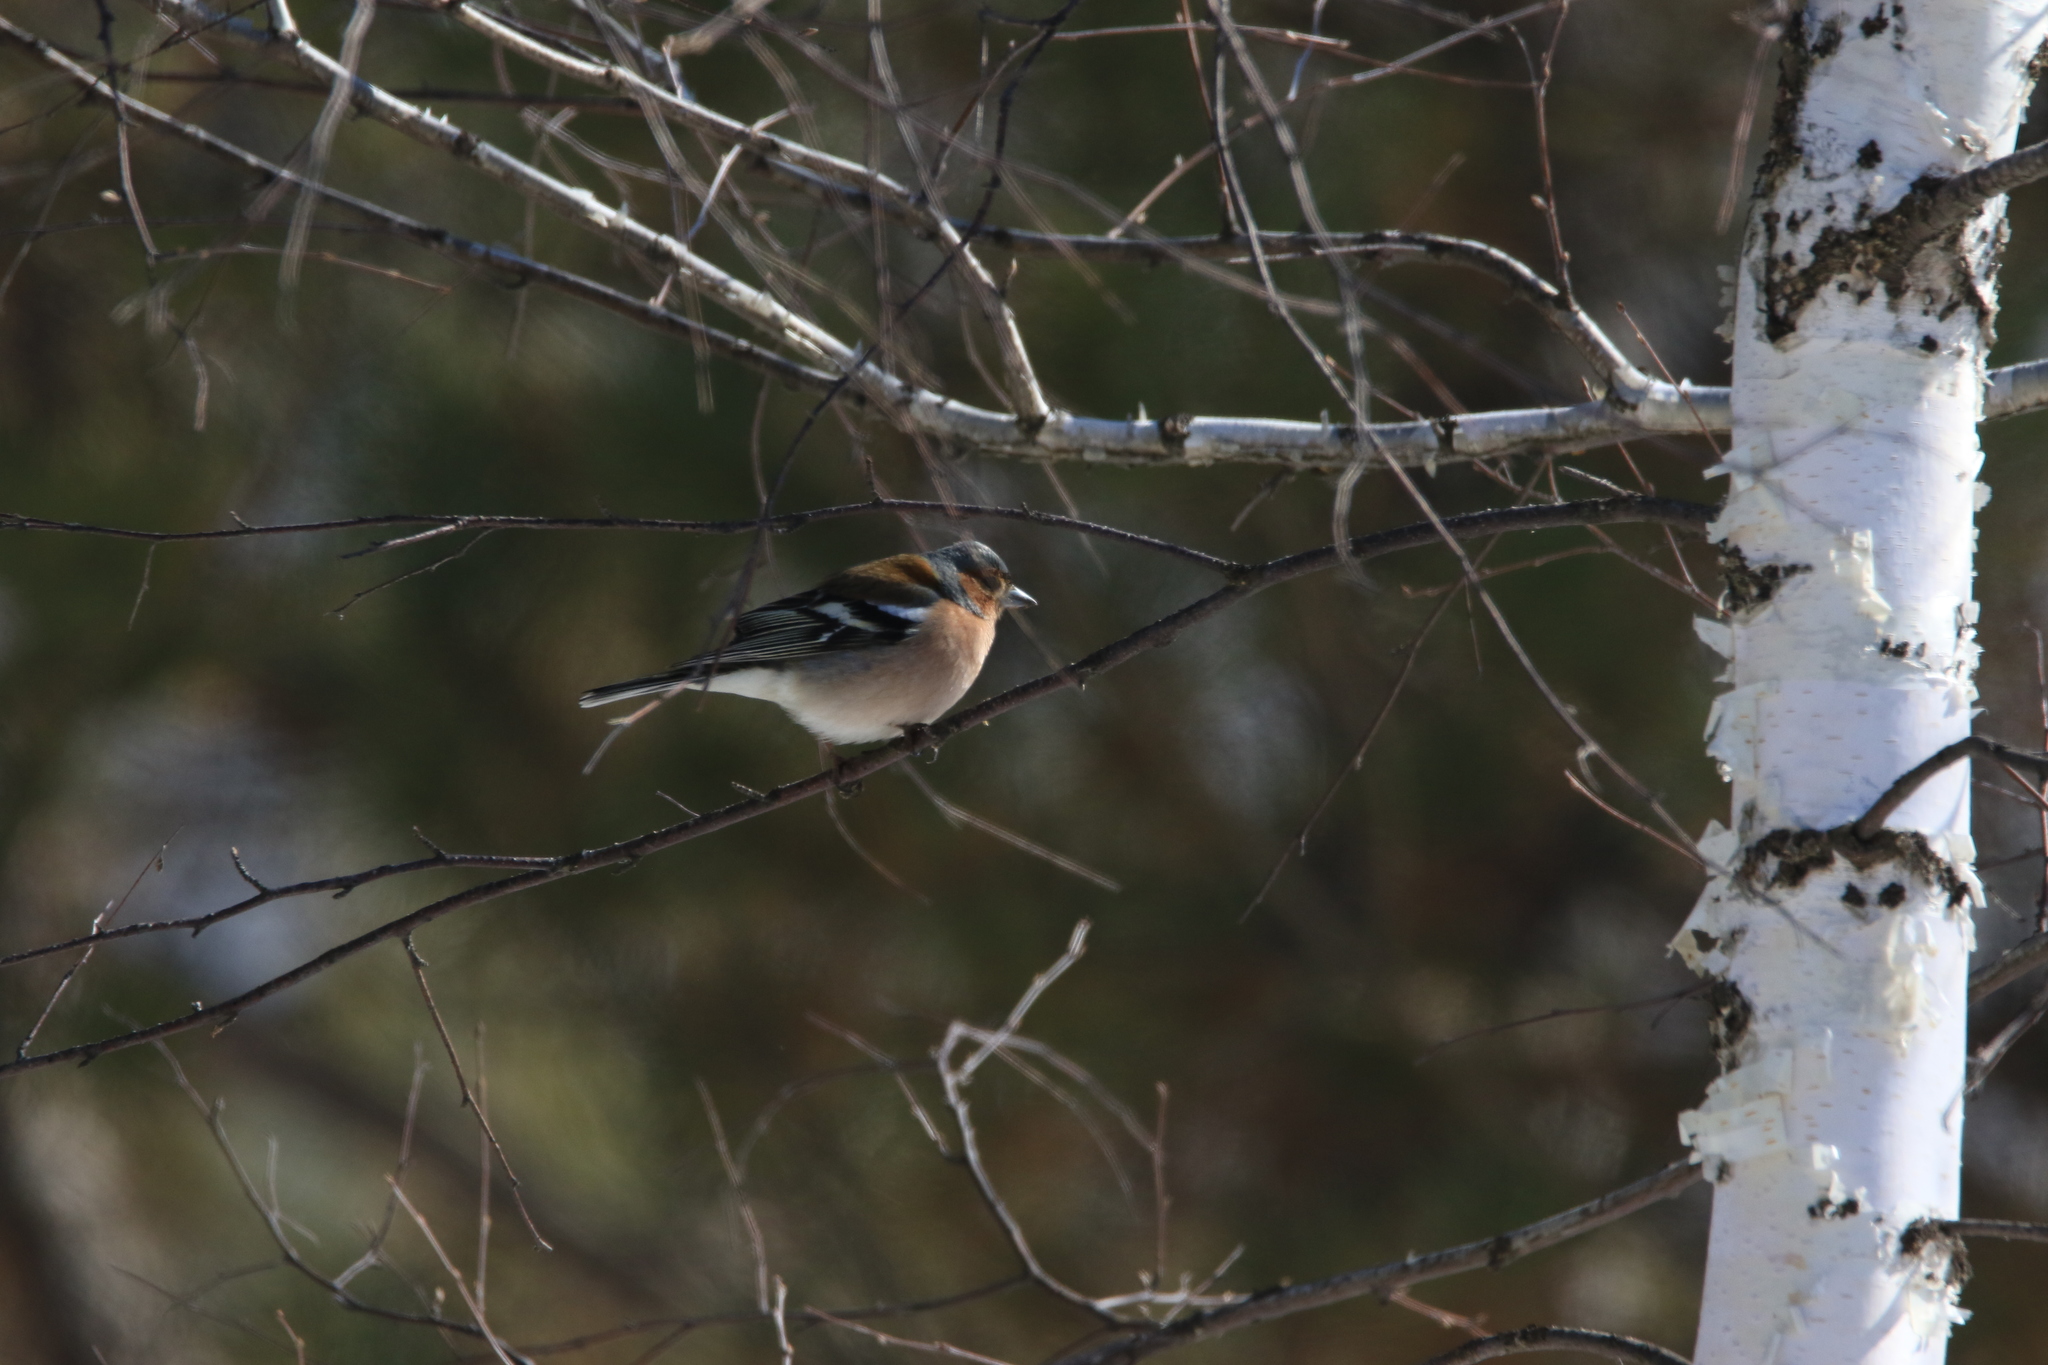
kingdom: Animalia
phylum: Chordata
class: Aves
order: Passeriformes
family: Fringillidae
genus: Fringilla
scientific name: Fringilla coelebs
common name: Common chaffinch
